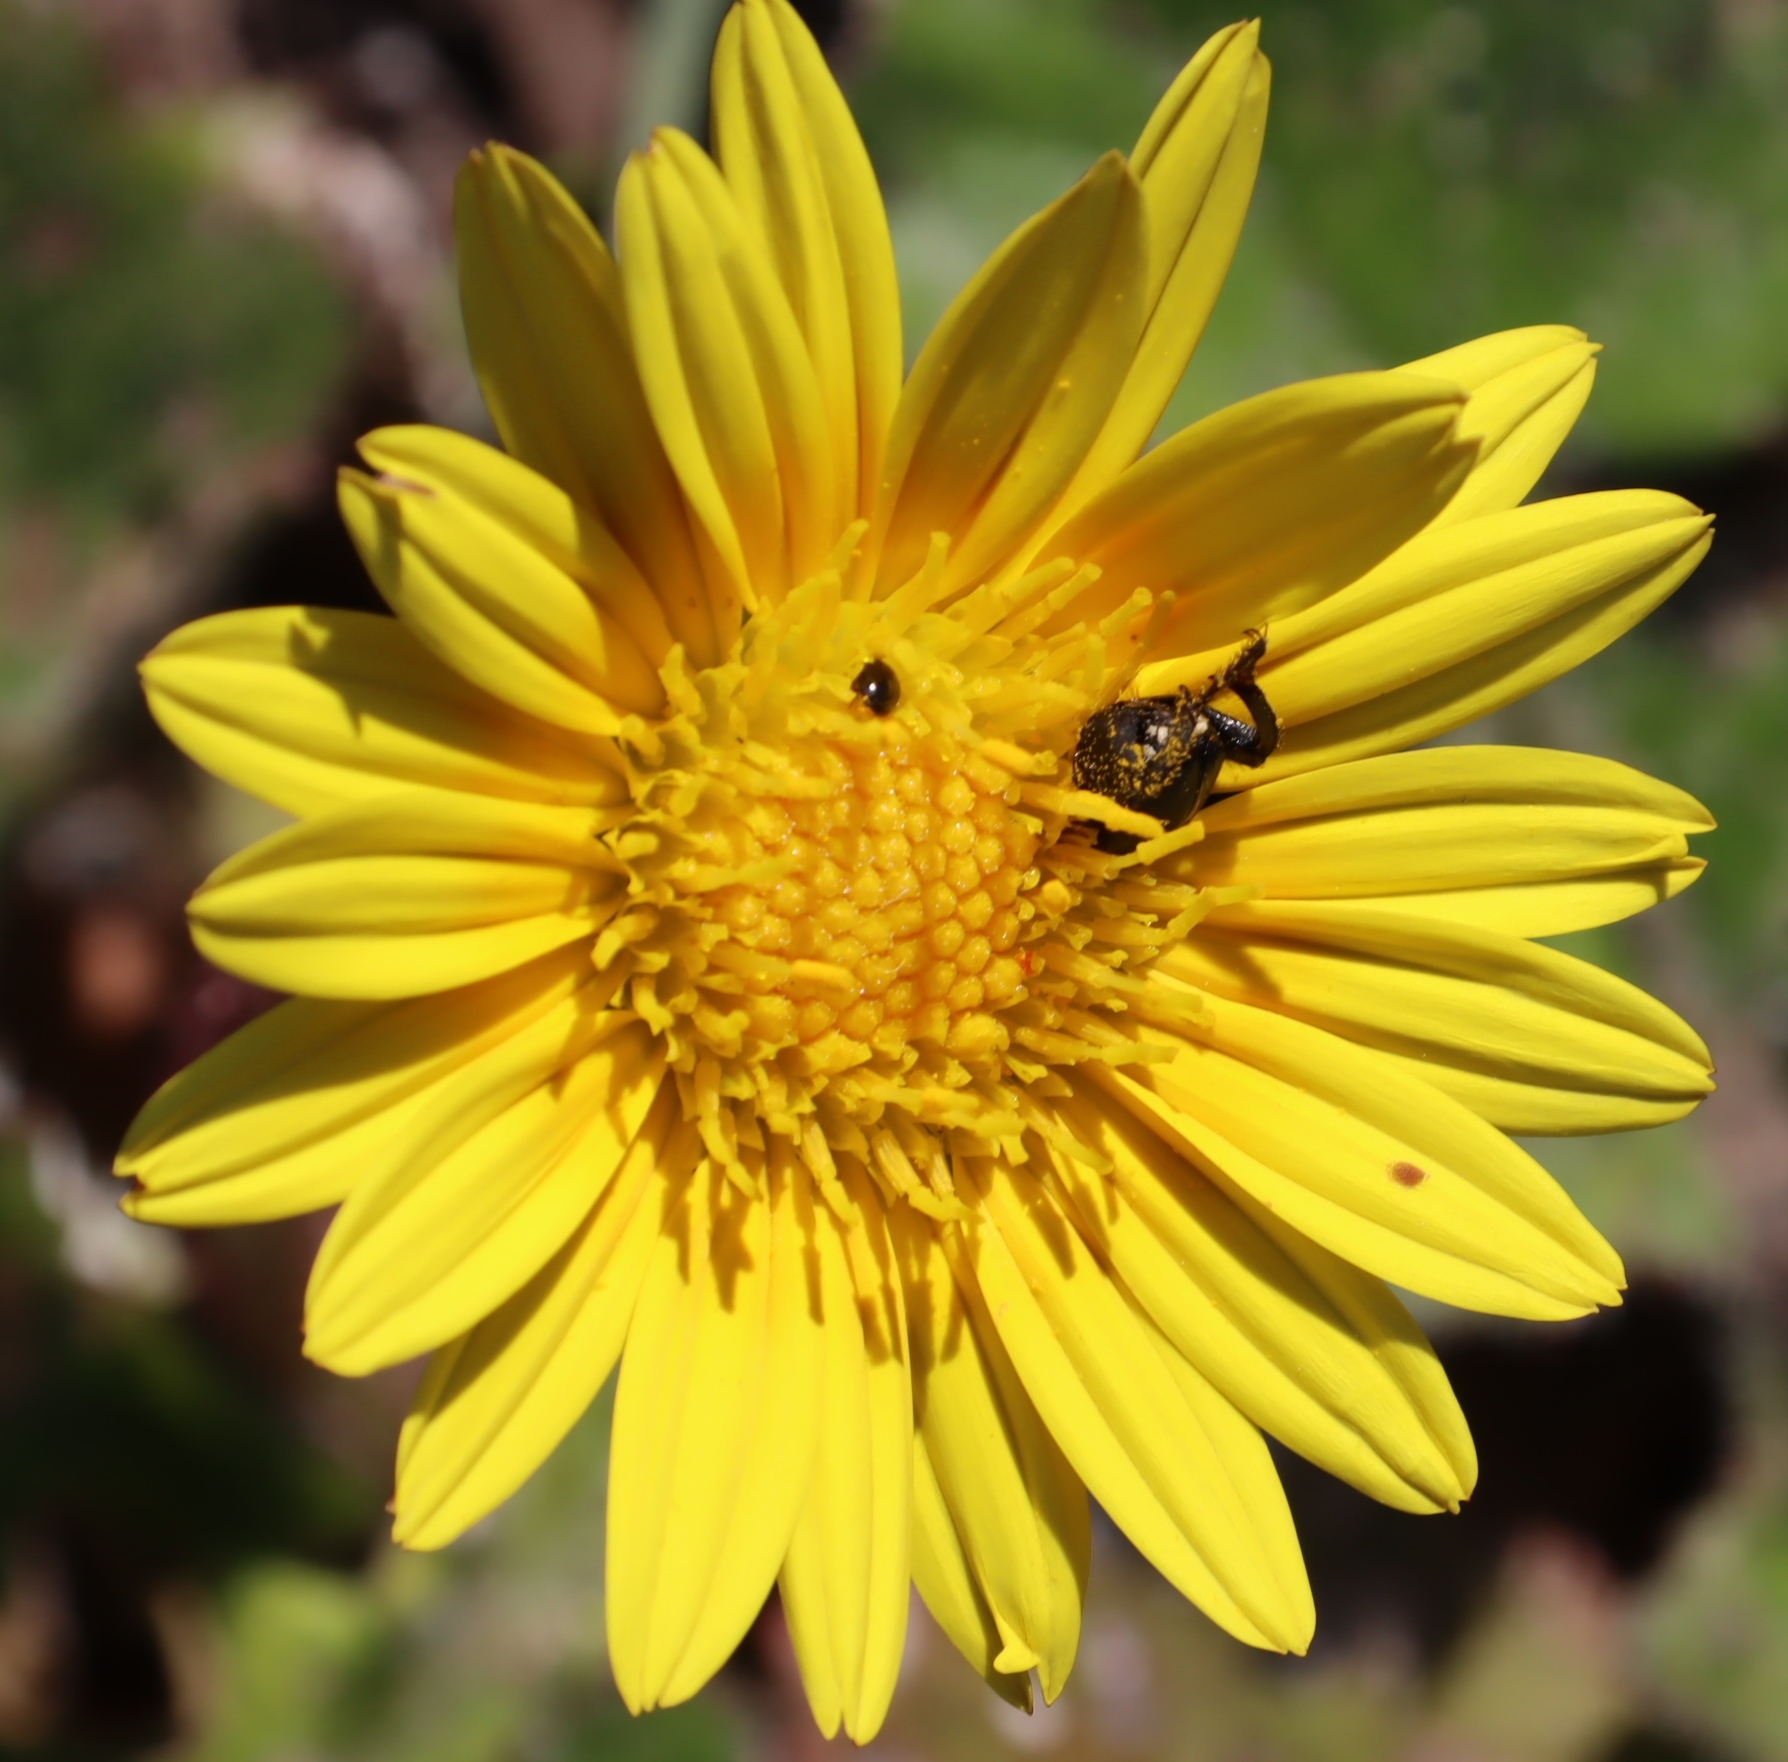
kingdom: Plantae
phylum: Tracheophyta
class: Magnoliopsida
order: Asterales
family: Asteraceae
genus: Arctotheca
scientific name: Arctotheca prostrata
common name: Capeweed
